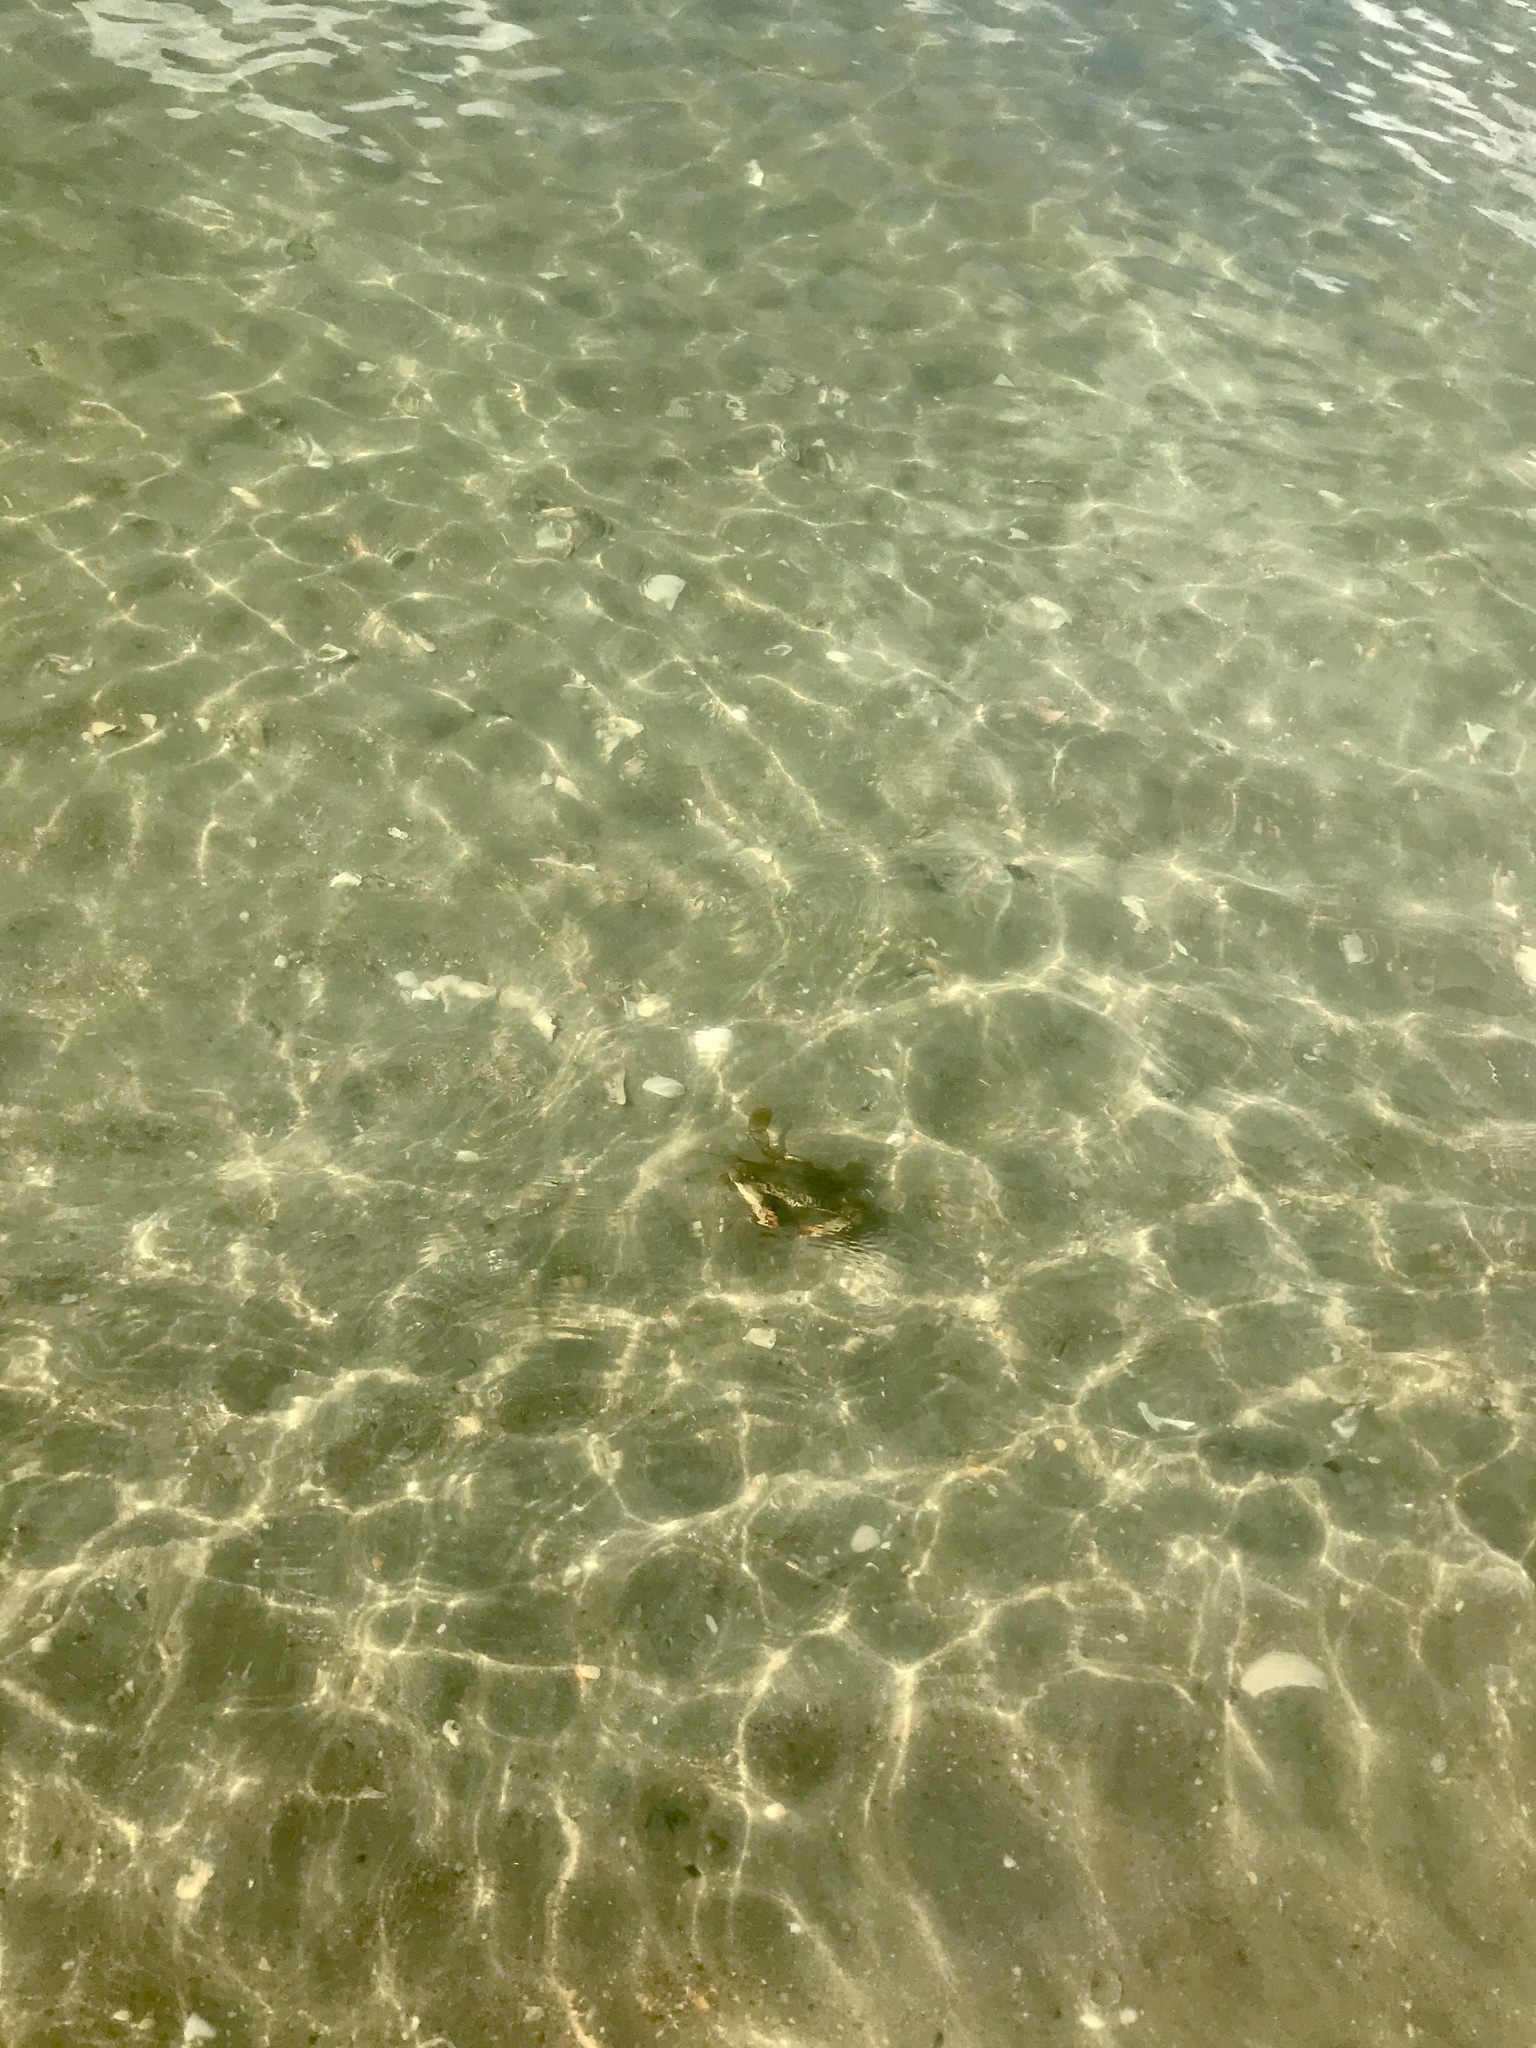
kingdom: Animalia
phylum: Arthropoda
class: Malacostraca
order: Decapoda
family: Portunidae
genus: Callinectes
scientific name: Callinectes sapidus
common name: Blue crab
